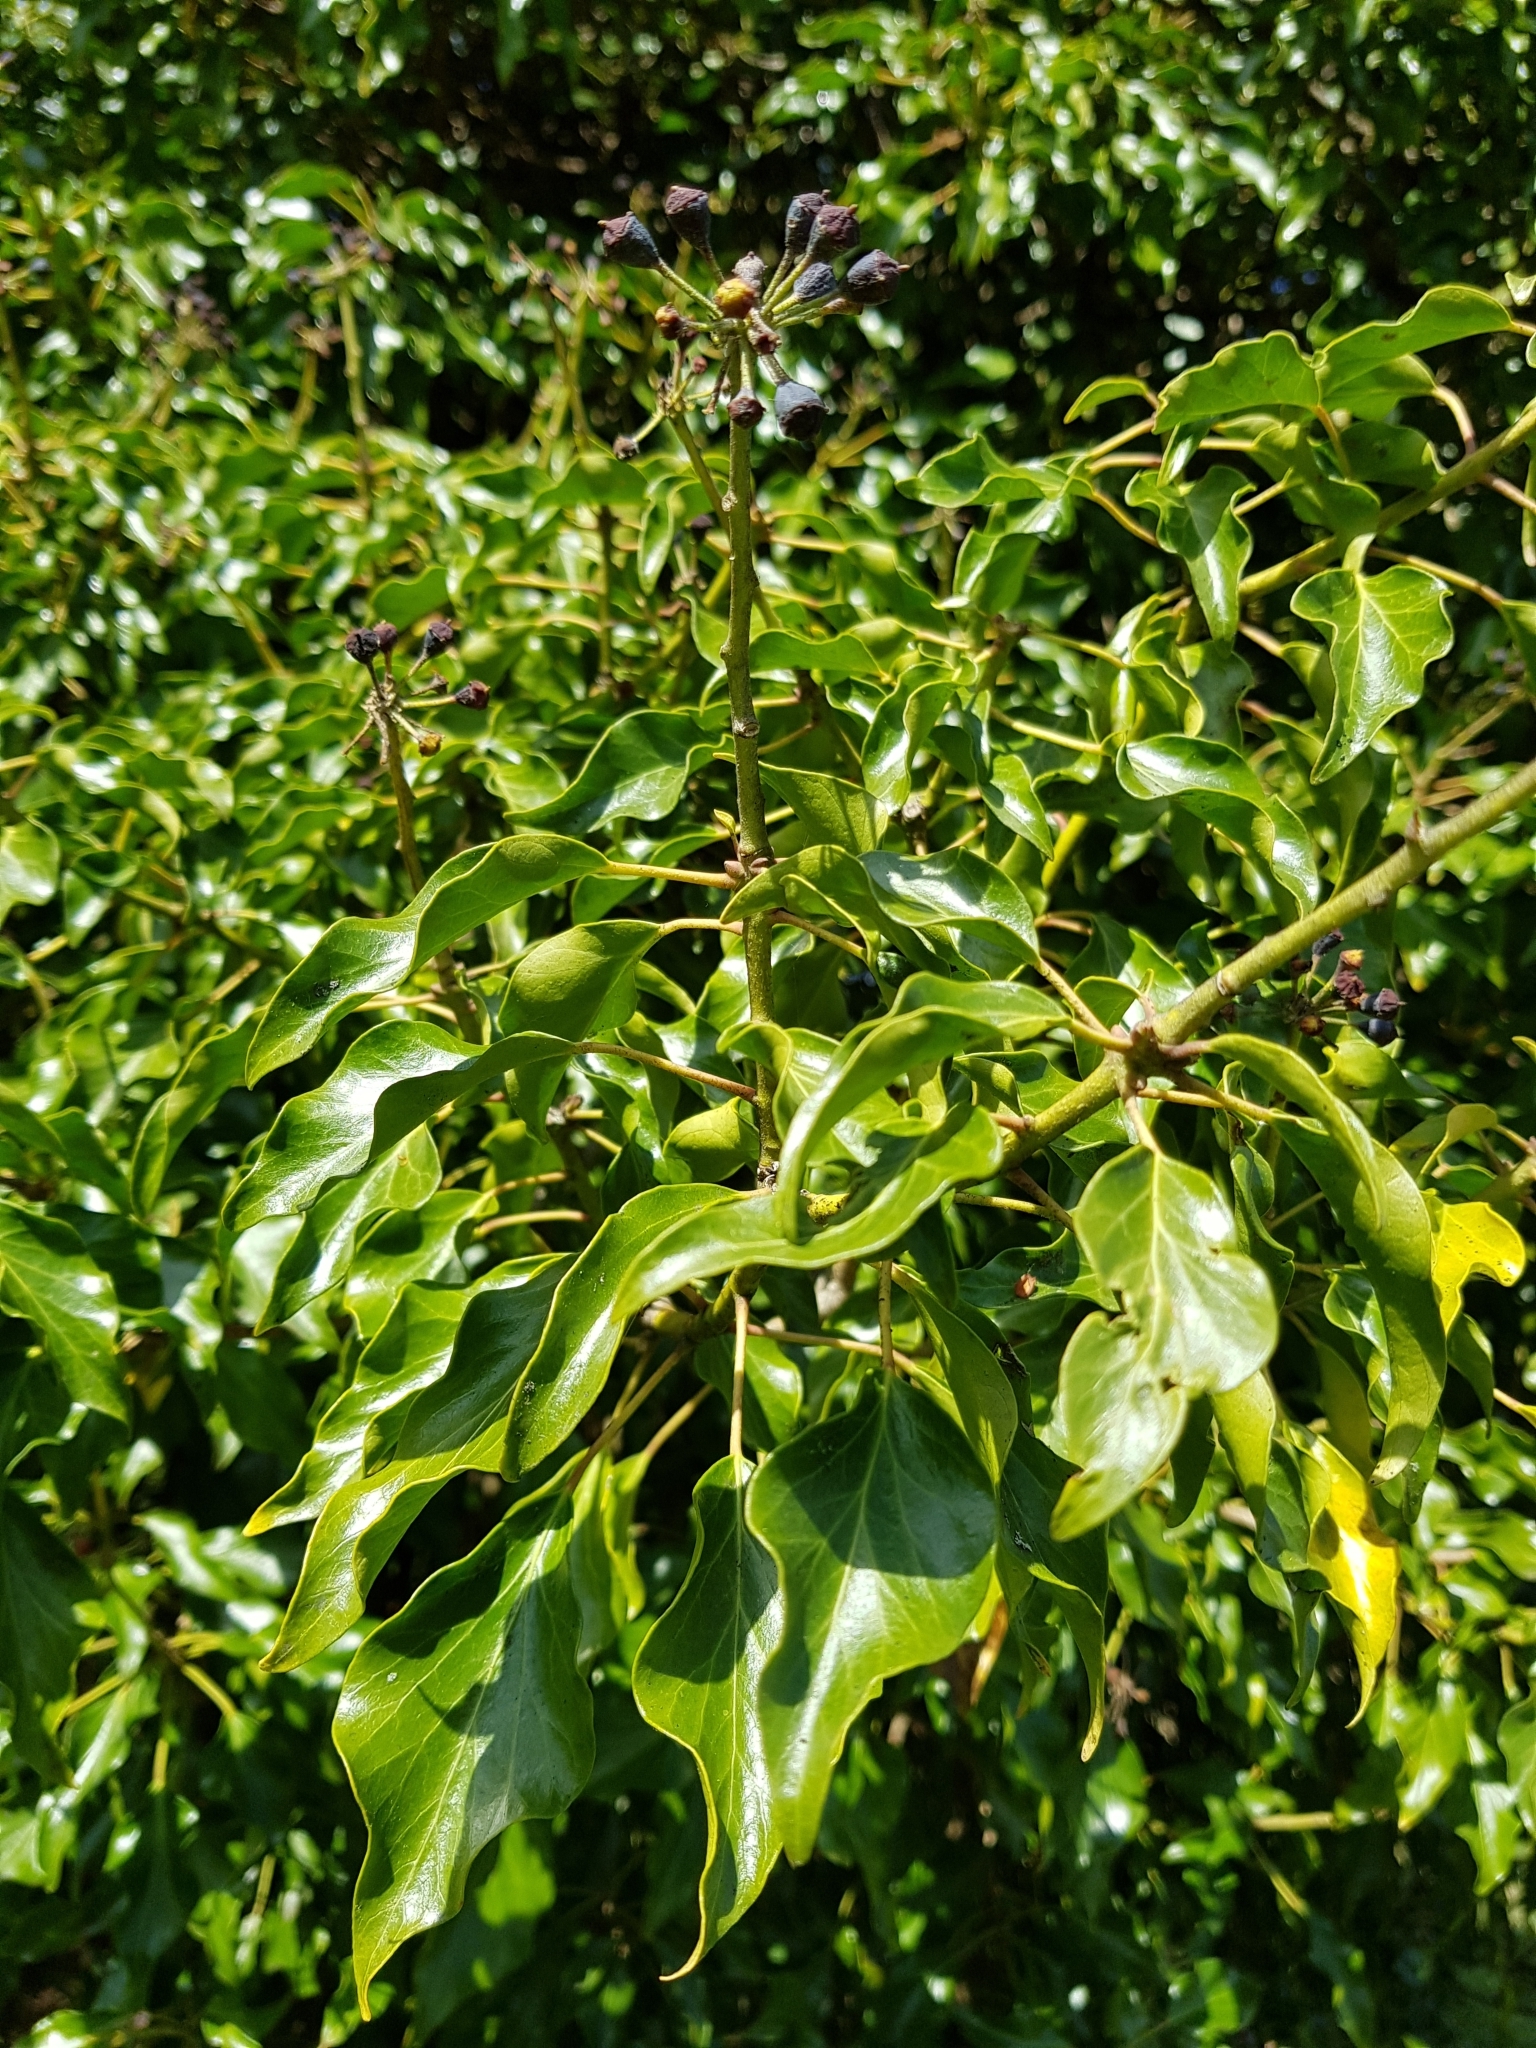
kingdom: Plantae
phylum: Tracheophyta
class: Magnoliopsida
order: Apiales
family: Araliaceae
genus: Hedera
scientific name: Hedera helix
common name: Ivy
